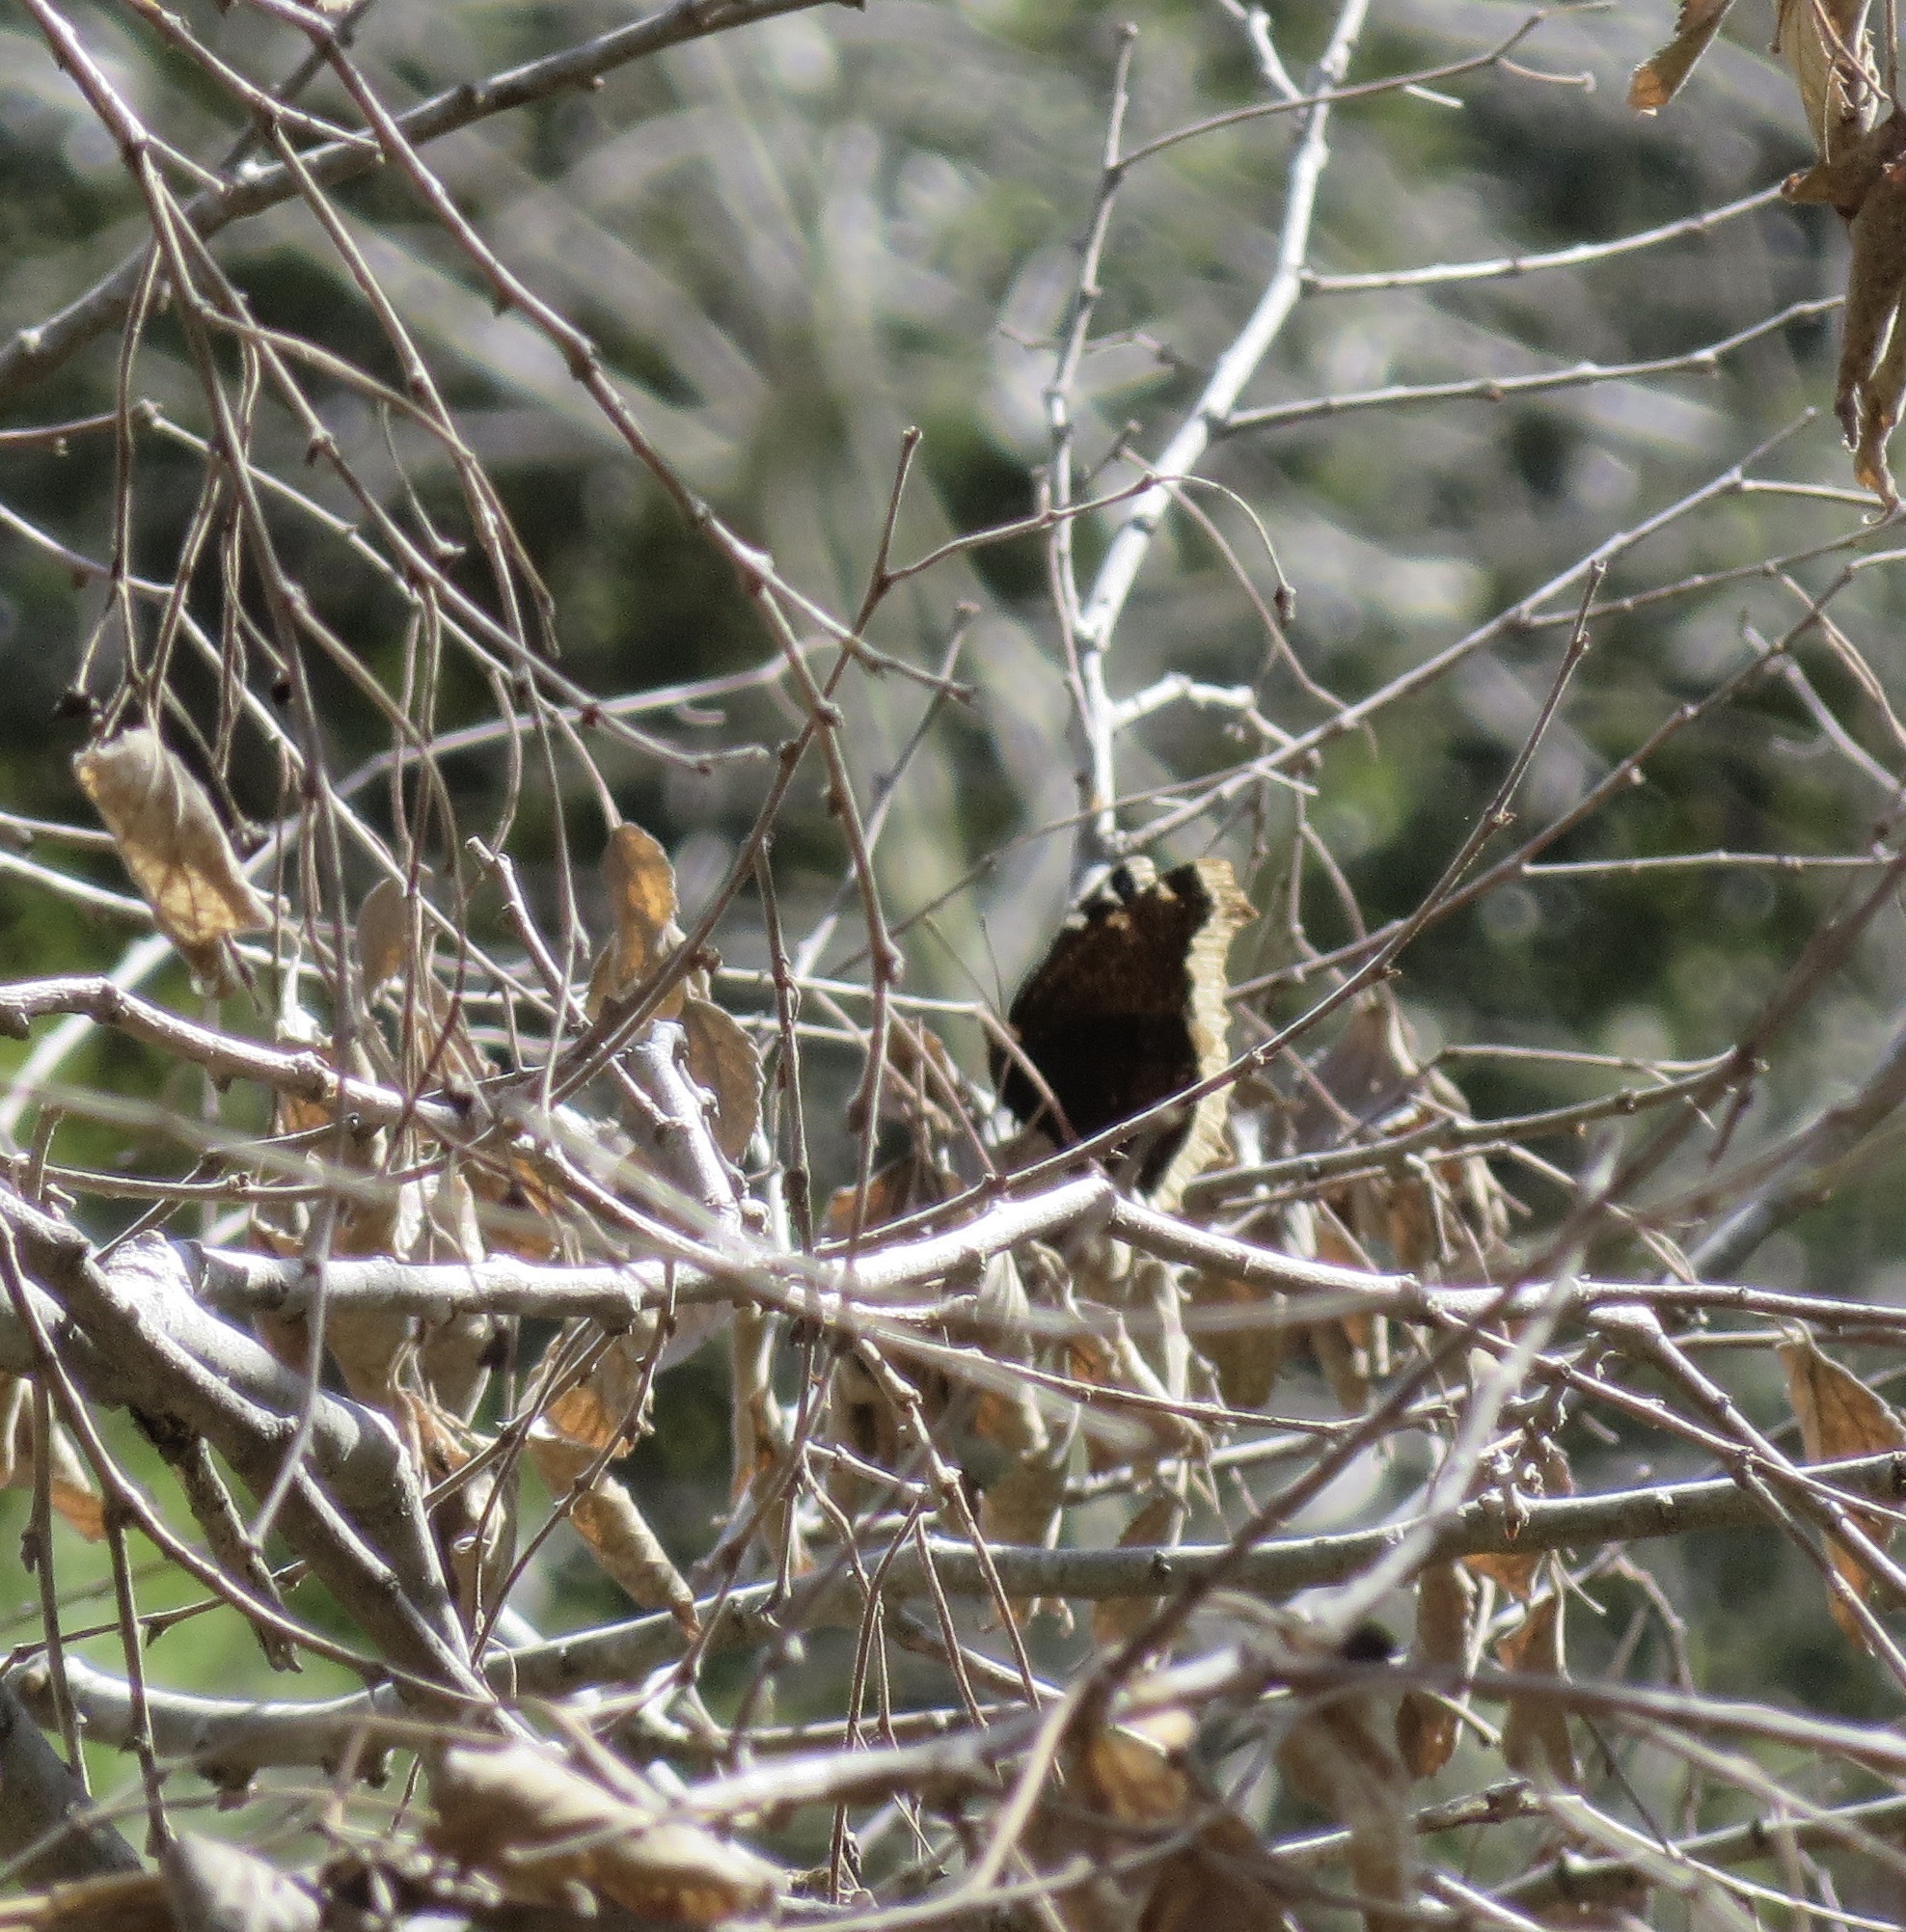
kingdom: Animalia
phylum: Arthropoda
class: Insecta
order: Lepidoptera
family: Nymphalidae
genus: Nymphalis
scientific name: Nymphalis antiopa
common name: Camberwell beauty
